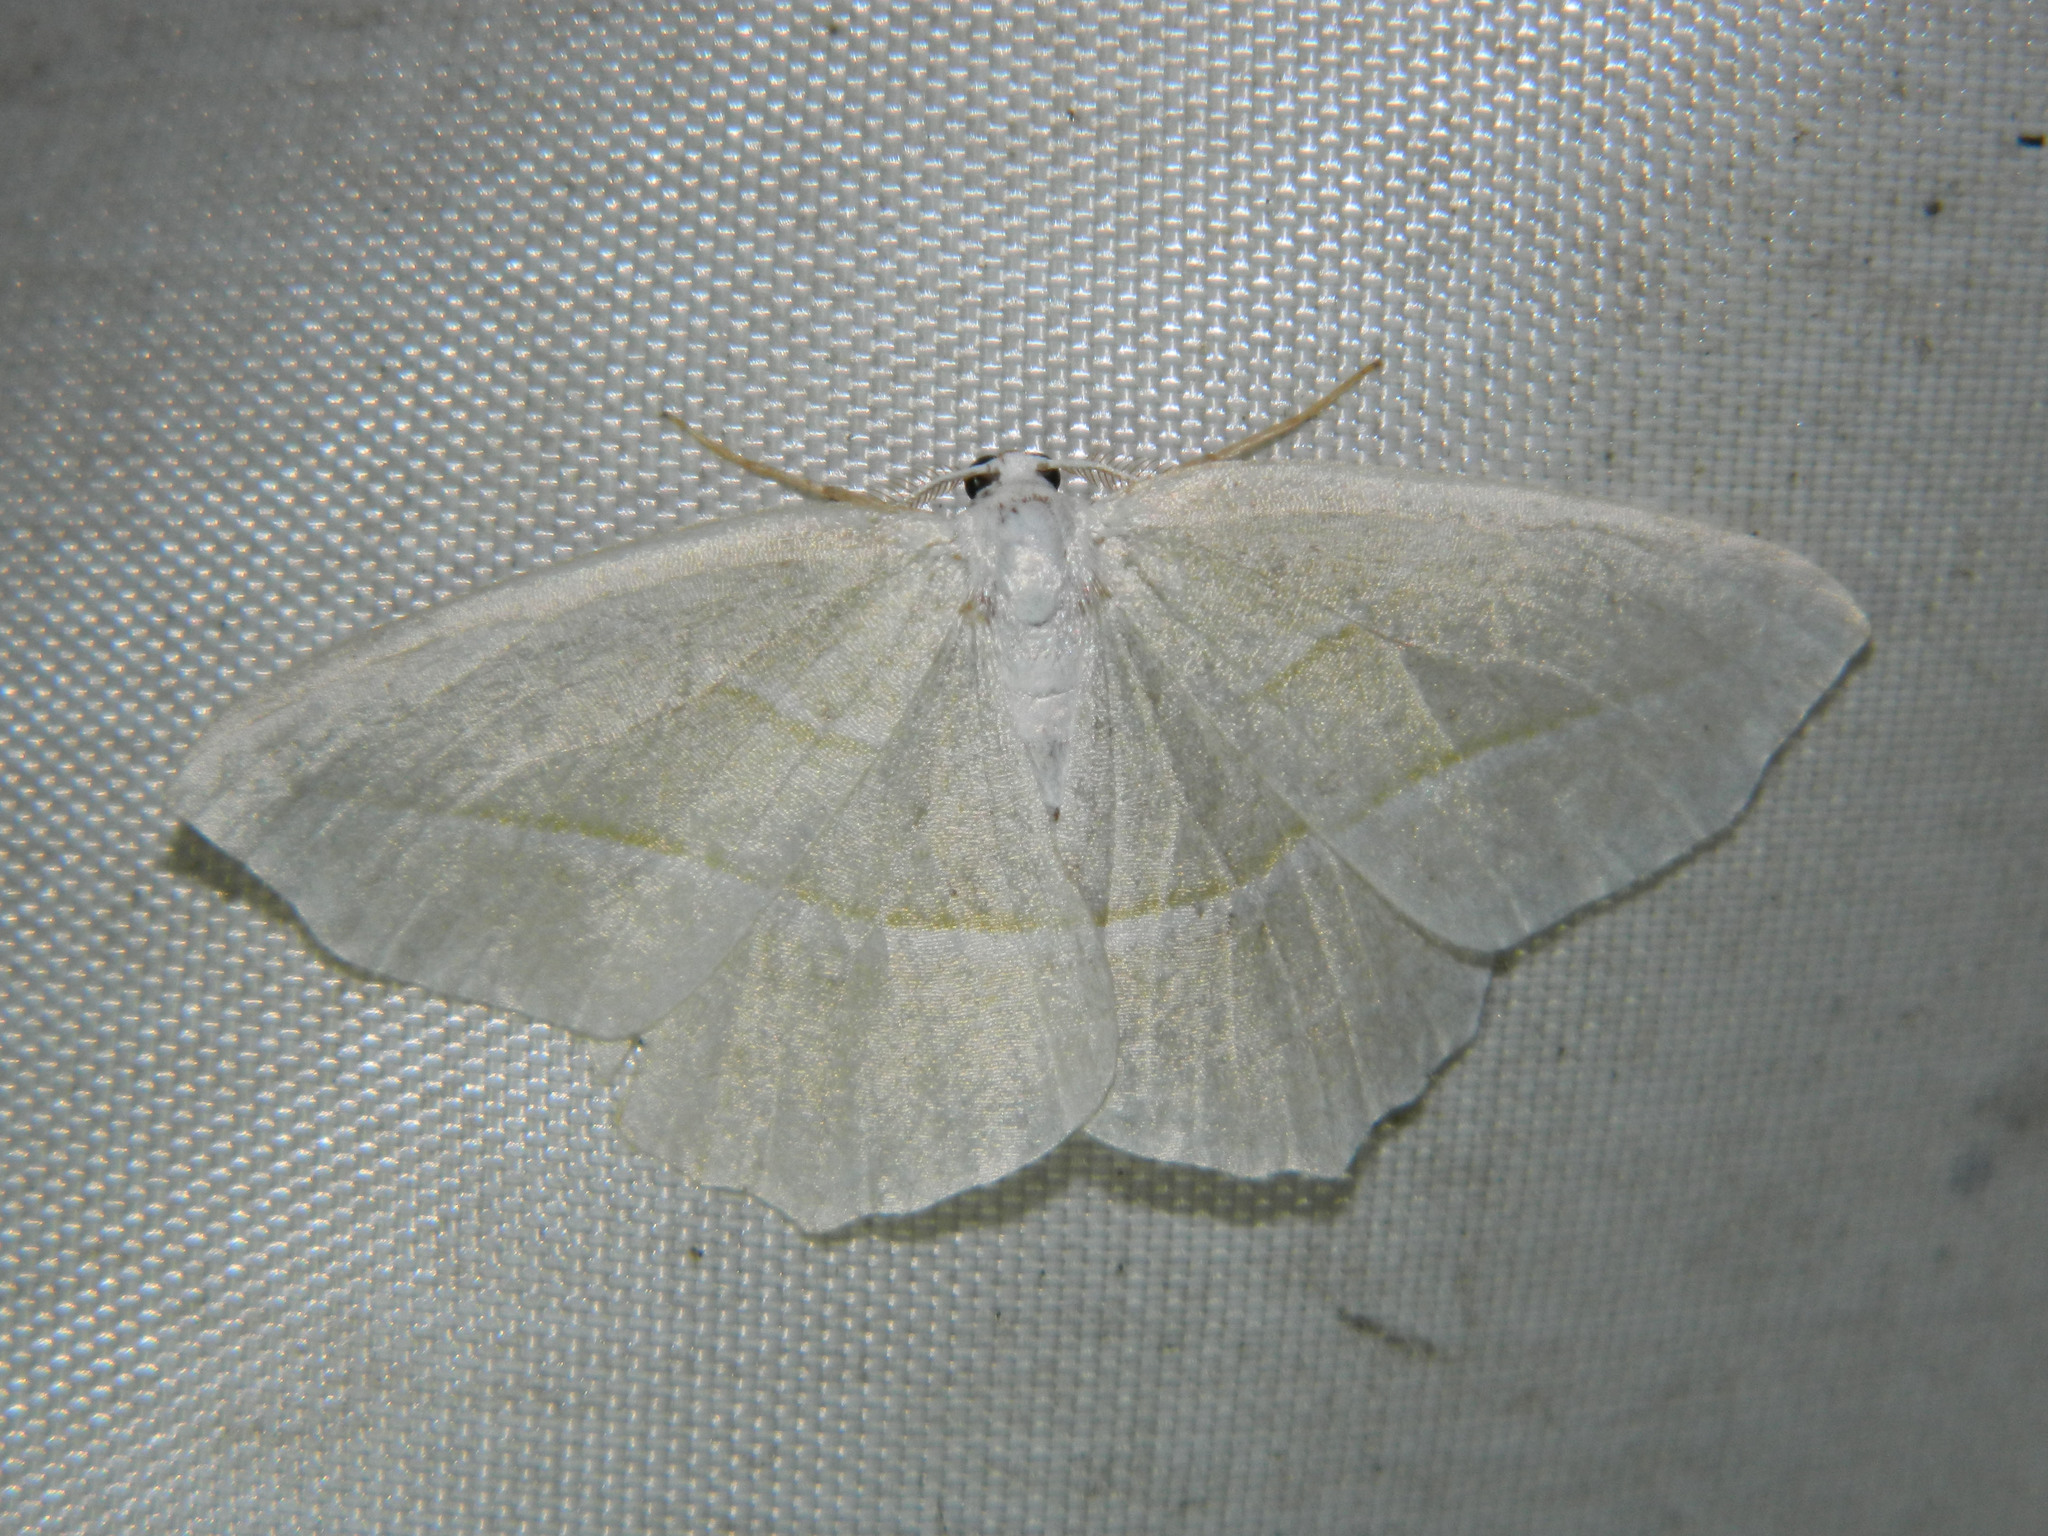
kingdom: Animalia
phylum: Arthropoda
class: Insecta
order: Lepidoptera
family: Geometridae
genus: Campaea
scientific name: Campaea perlata
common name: Fringed looper
